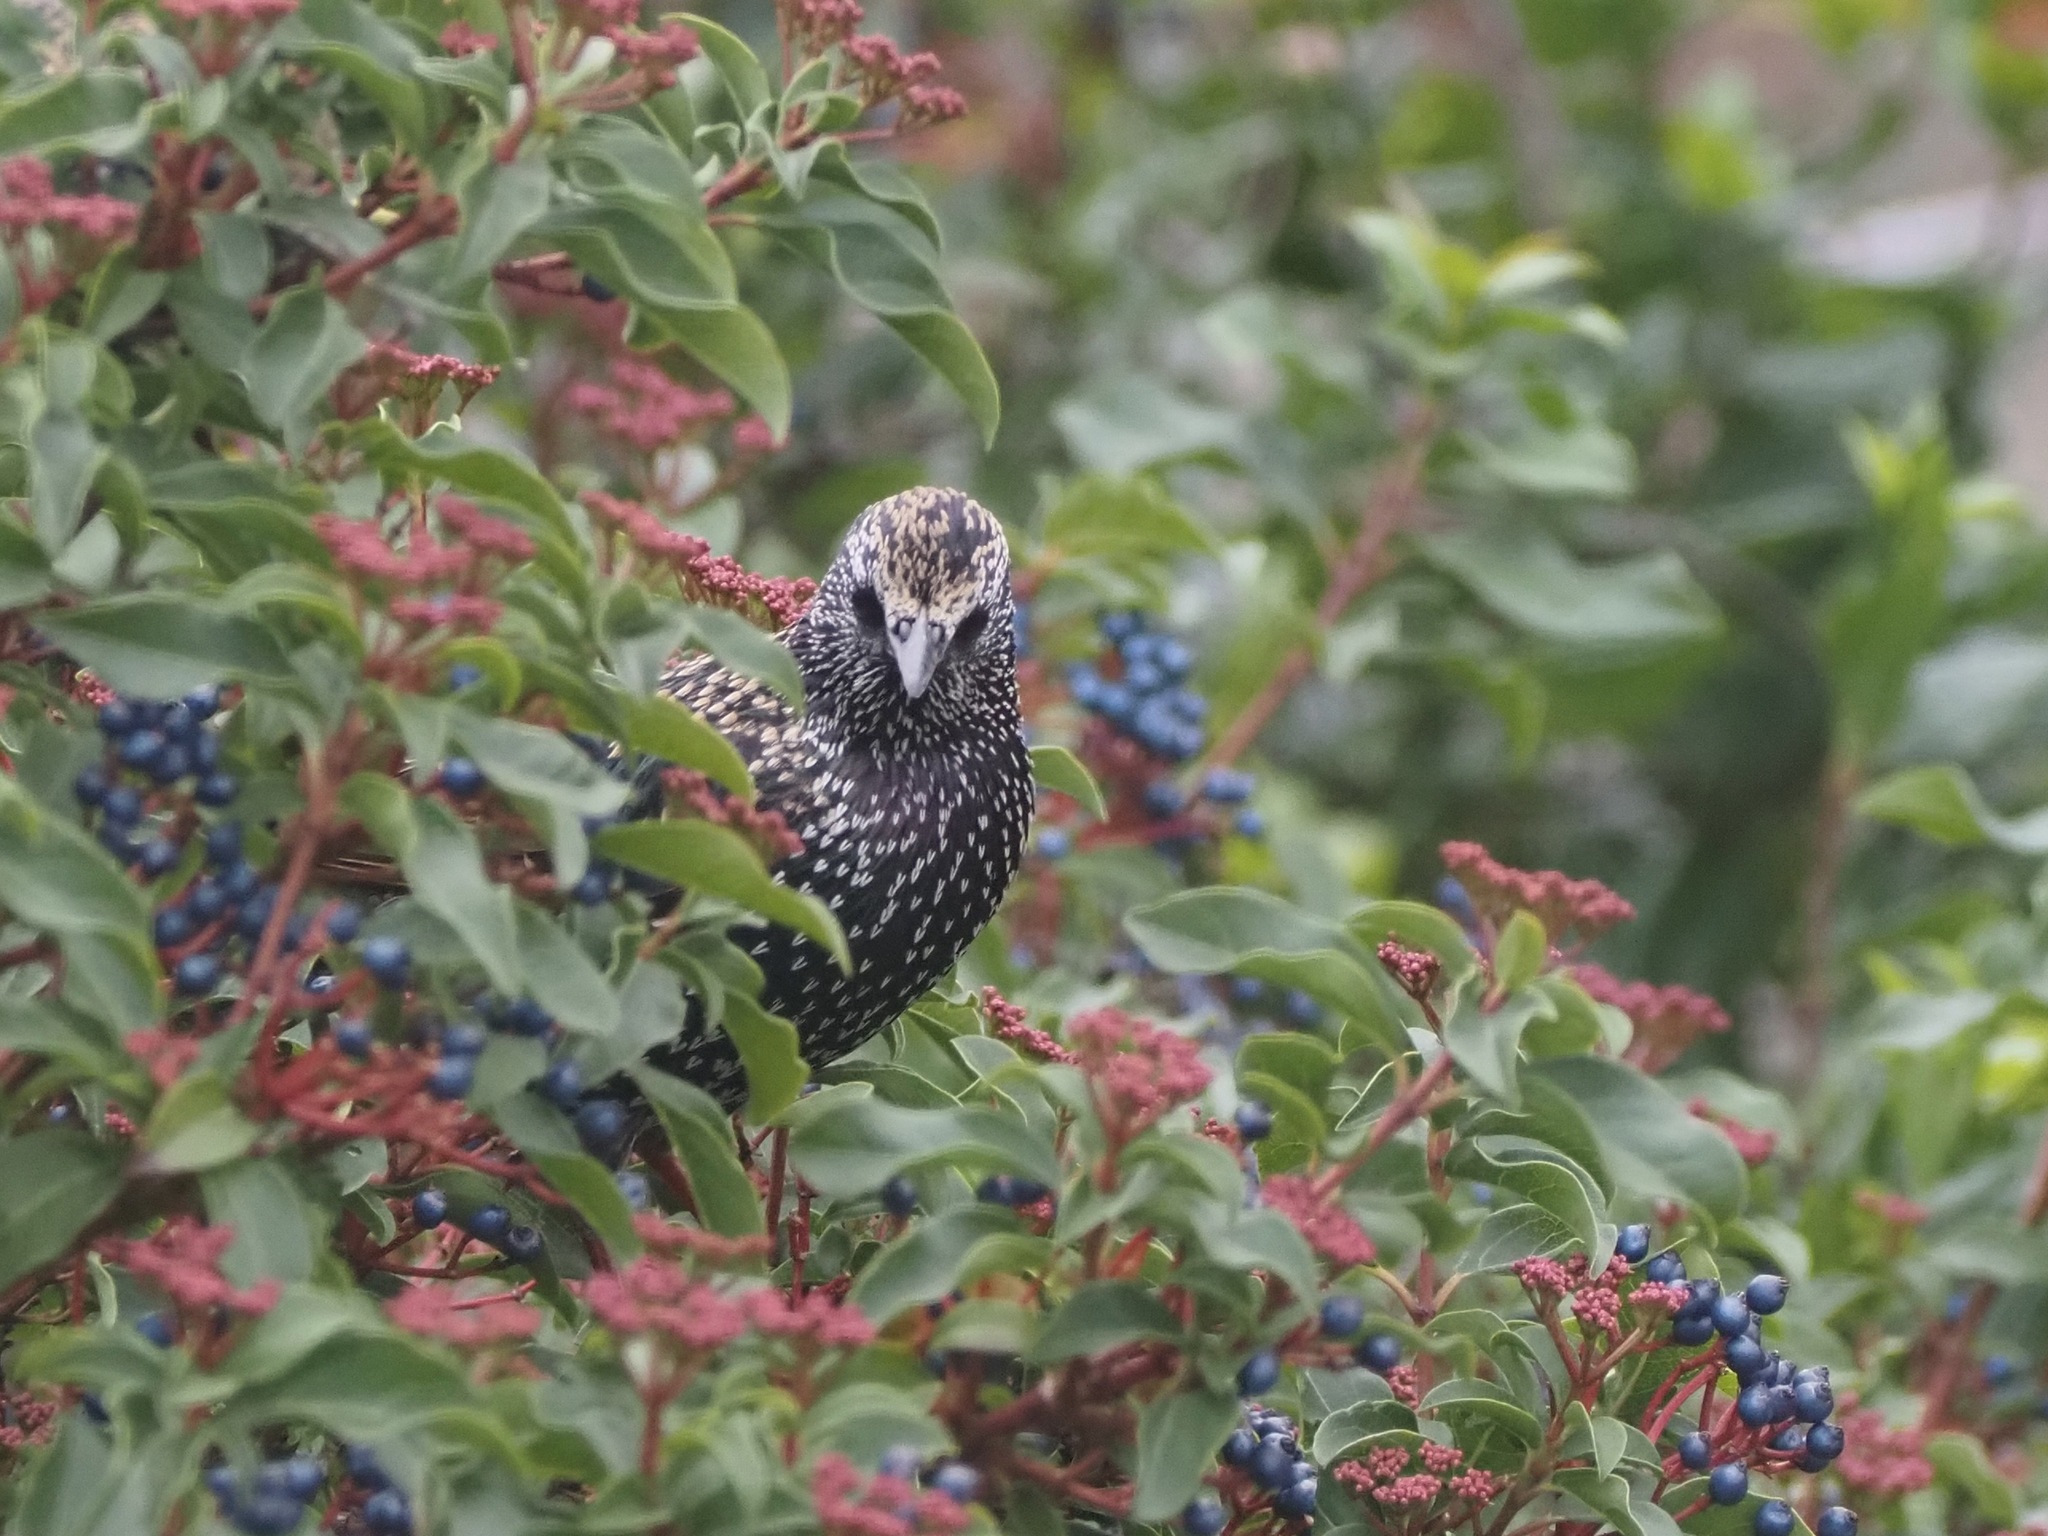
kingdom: Animalia
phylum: Chordata
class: Aves
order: Passeriformes
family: Sturnidae
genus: Sturnus
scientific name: Sturnus vulgaris
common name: Common starling
